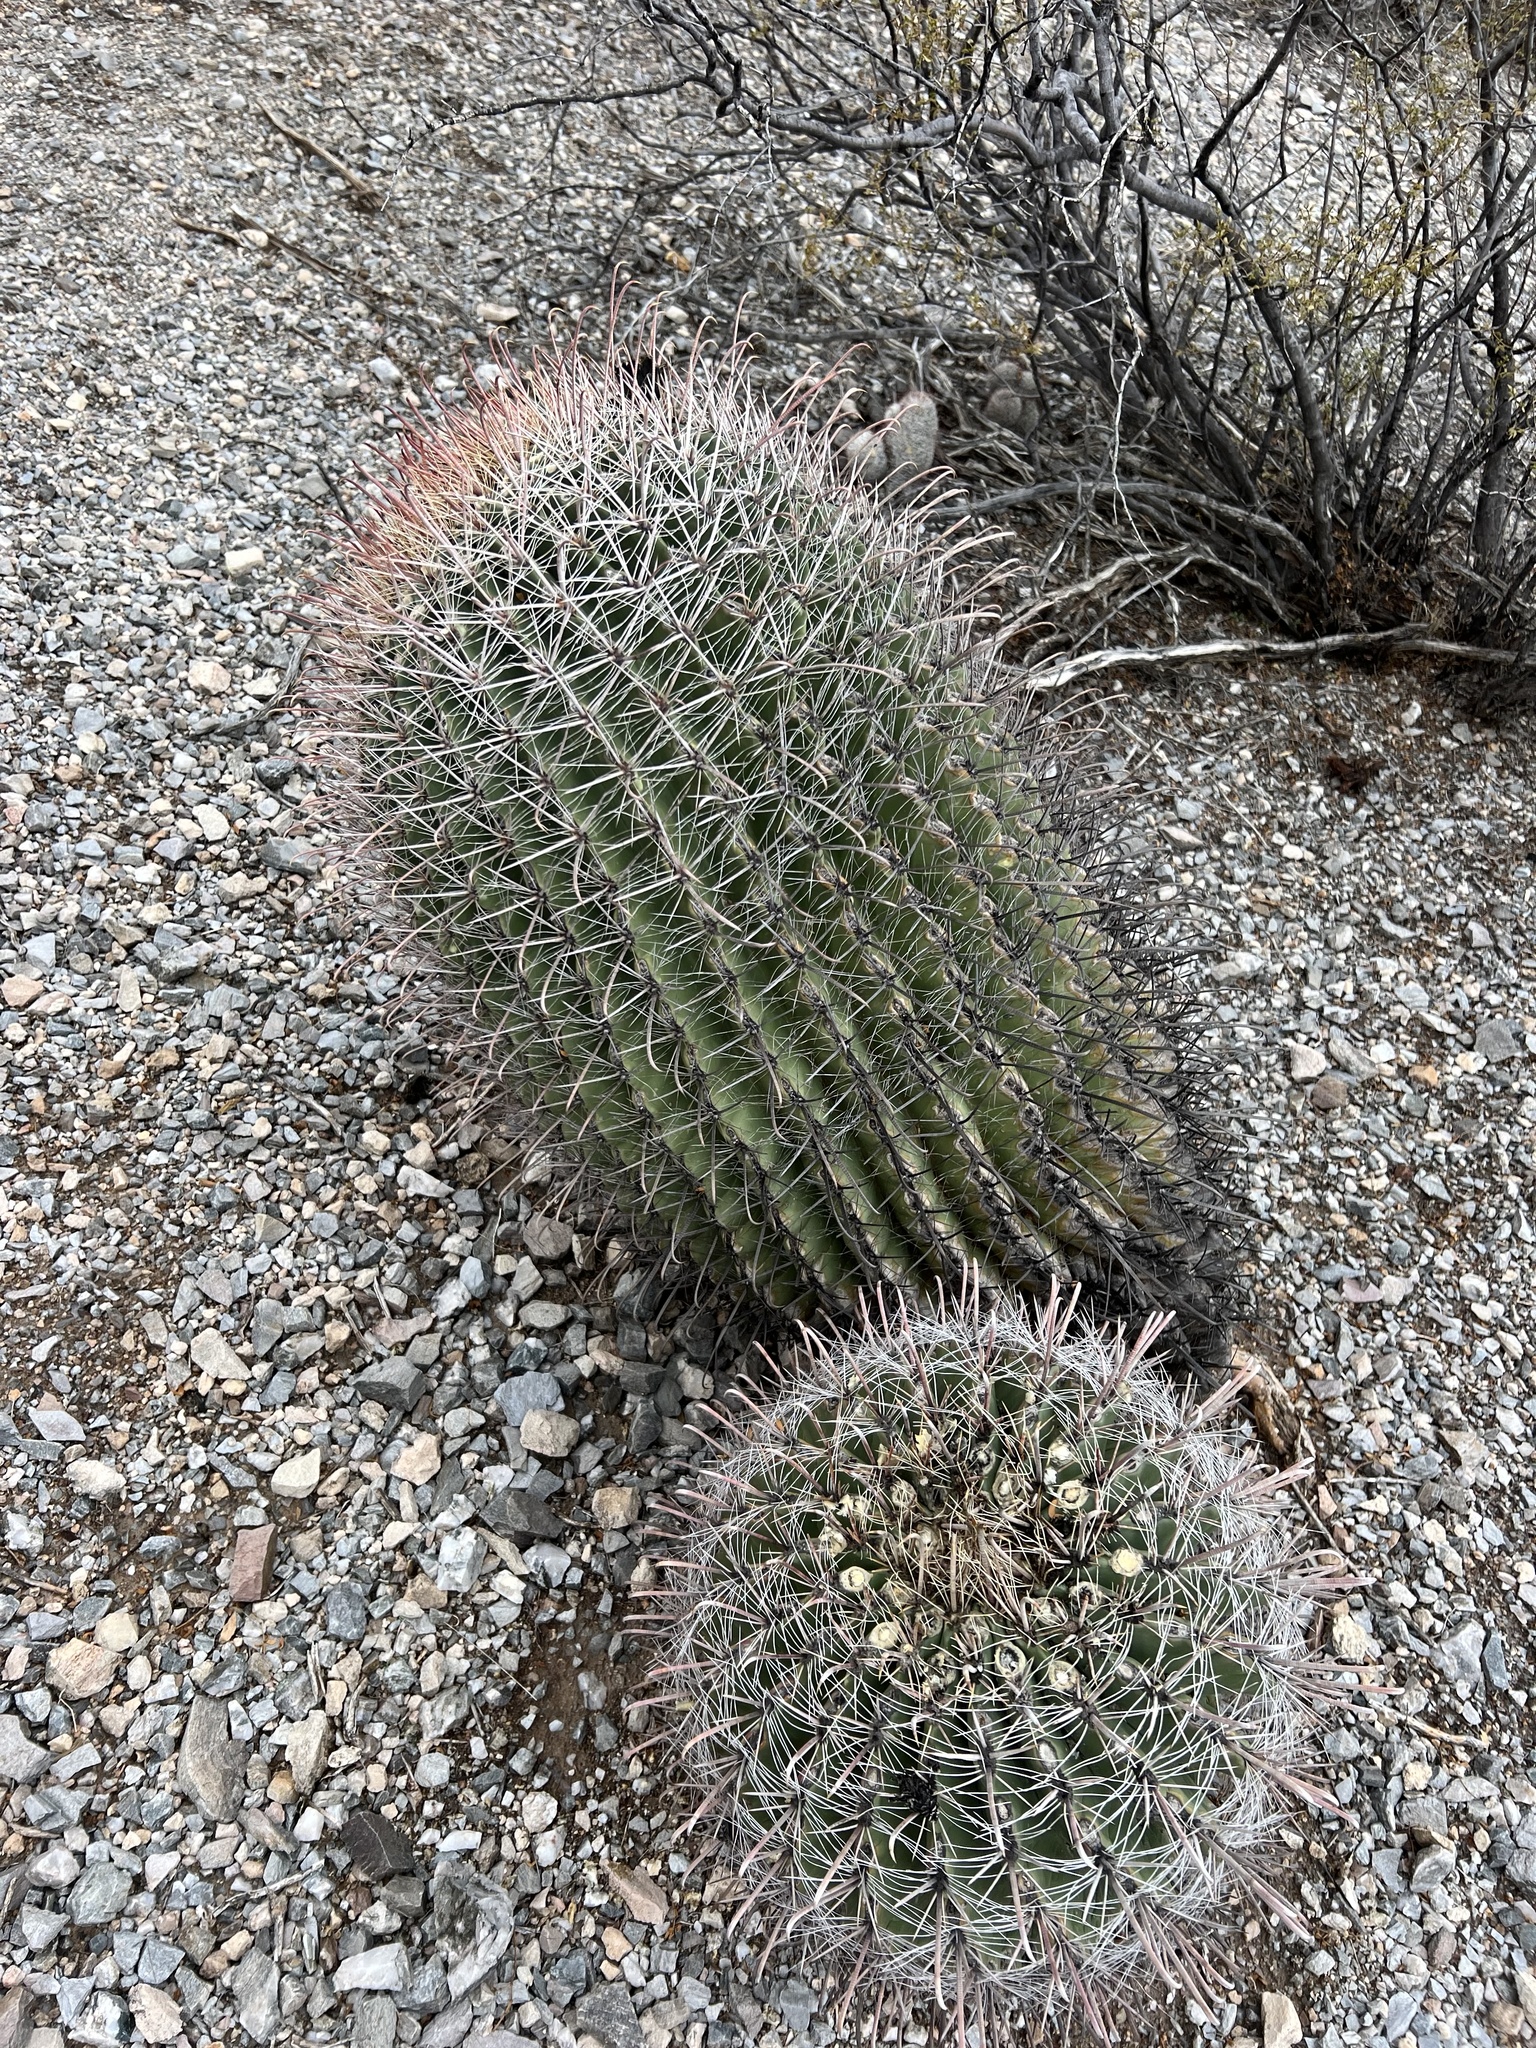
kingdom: Plantae
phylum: Tracheophyta
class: Magnoliopsida
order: Caryophyllales
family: Cactaceae
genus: Ferocactus
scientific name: Ferocactus wislizeni
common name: Candy barrel cactus
